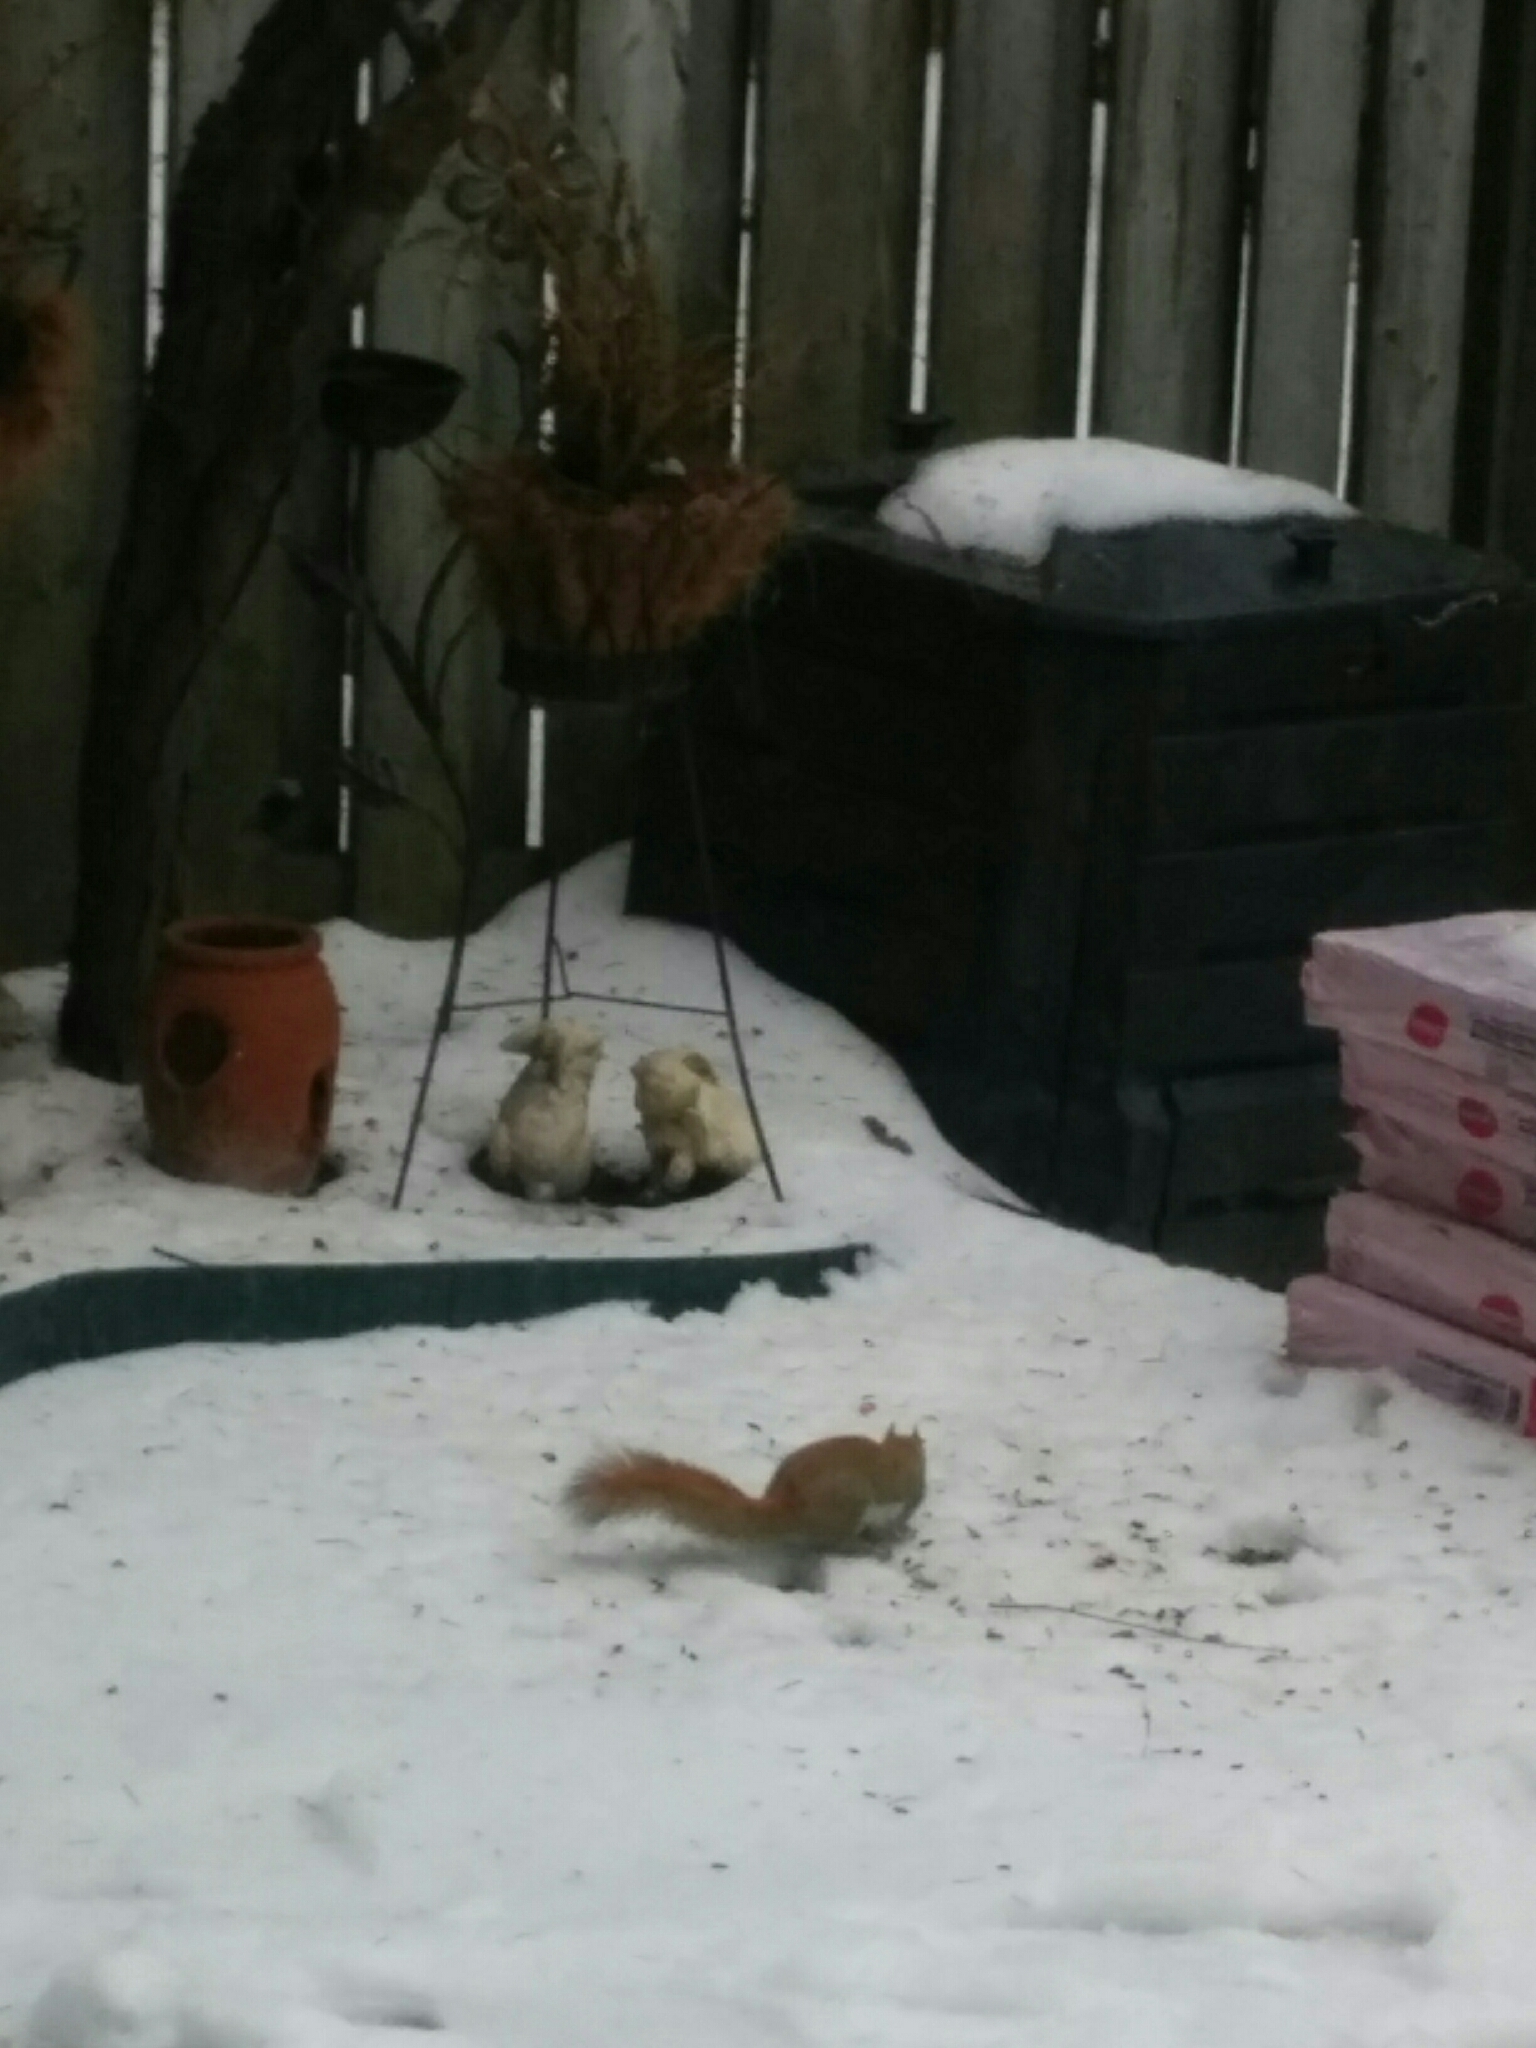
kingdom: Animalia
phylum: Chordata
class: Mammalia
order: Rodentia
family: Sciuridae
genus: Tamiasciurus
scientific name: Tamiasciurus hudsonicus
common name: Red squirrel
